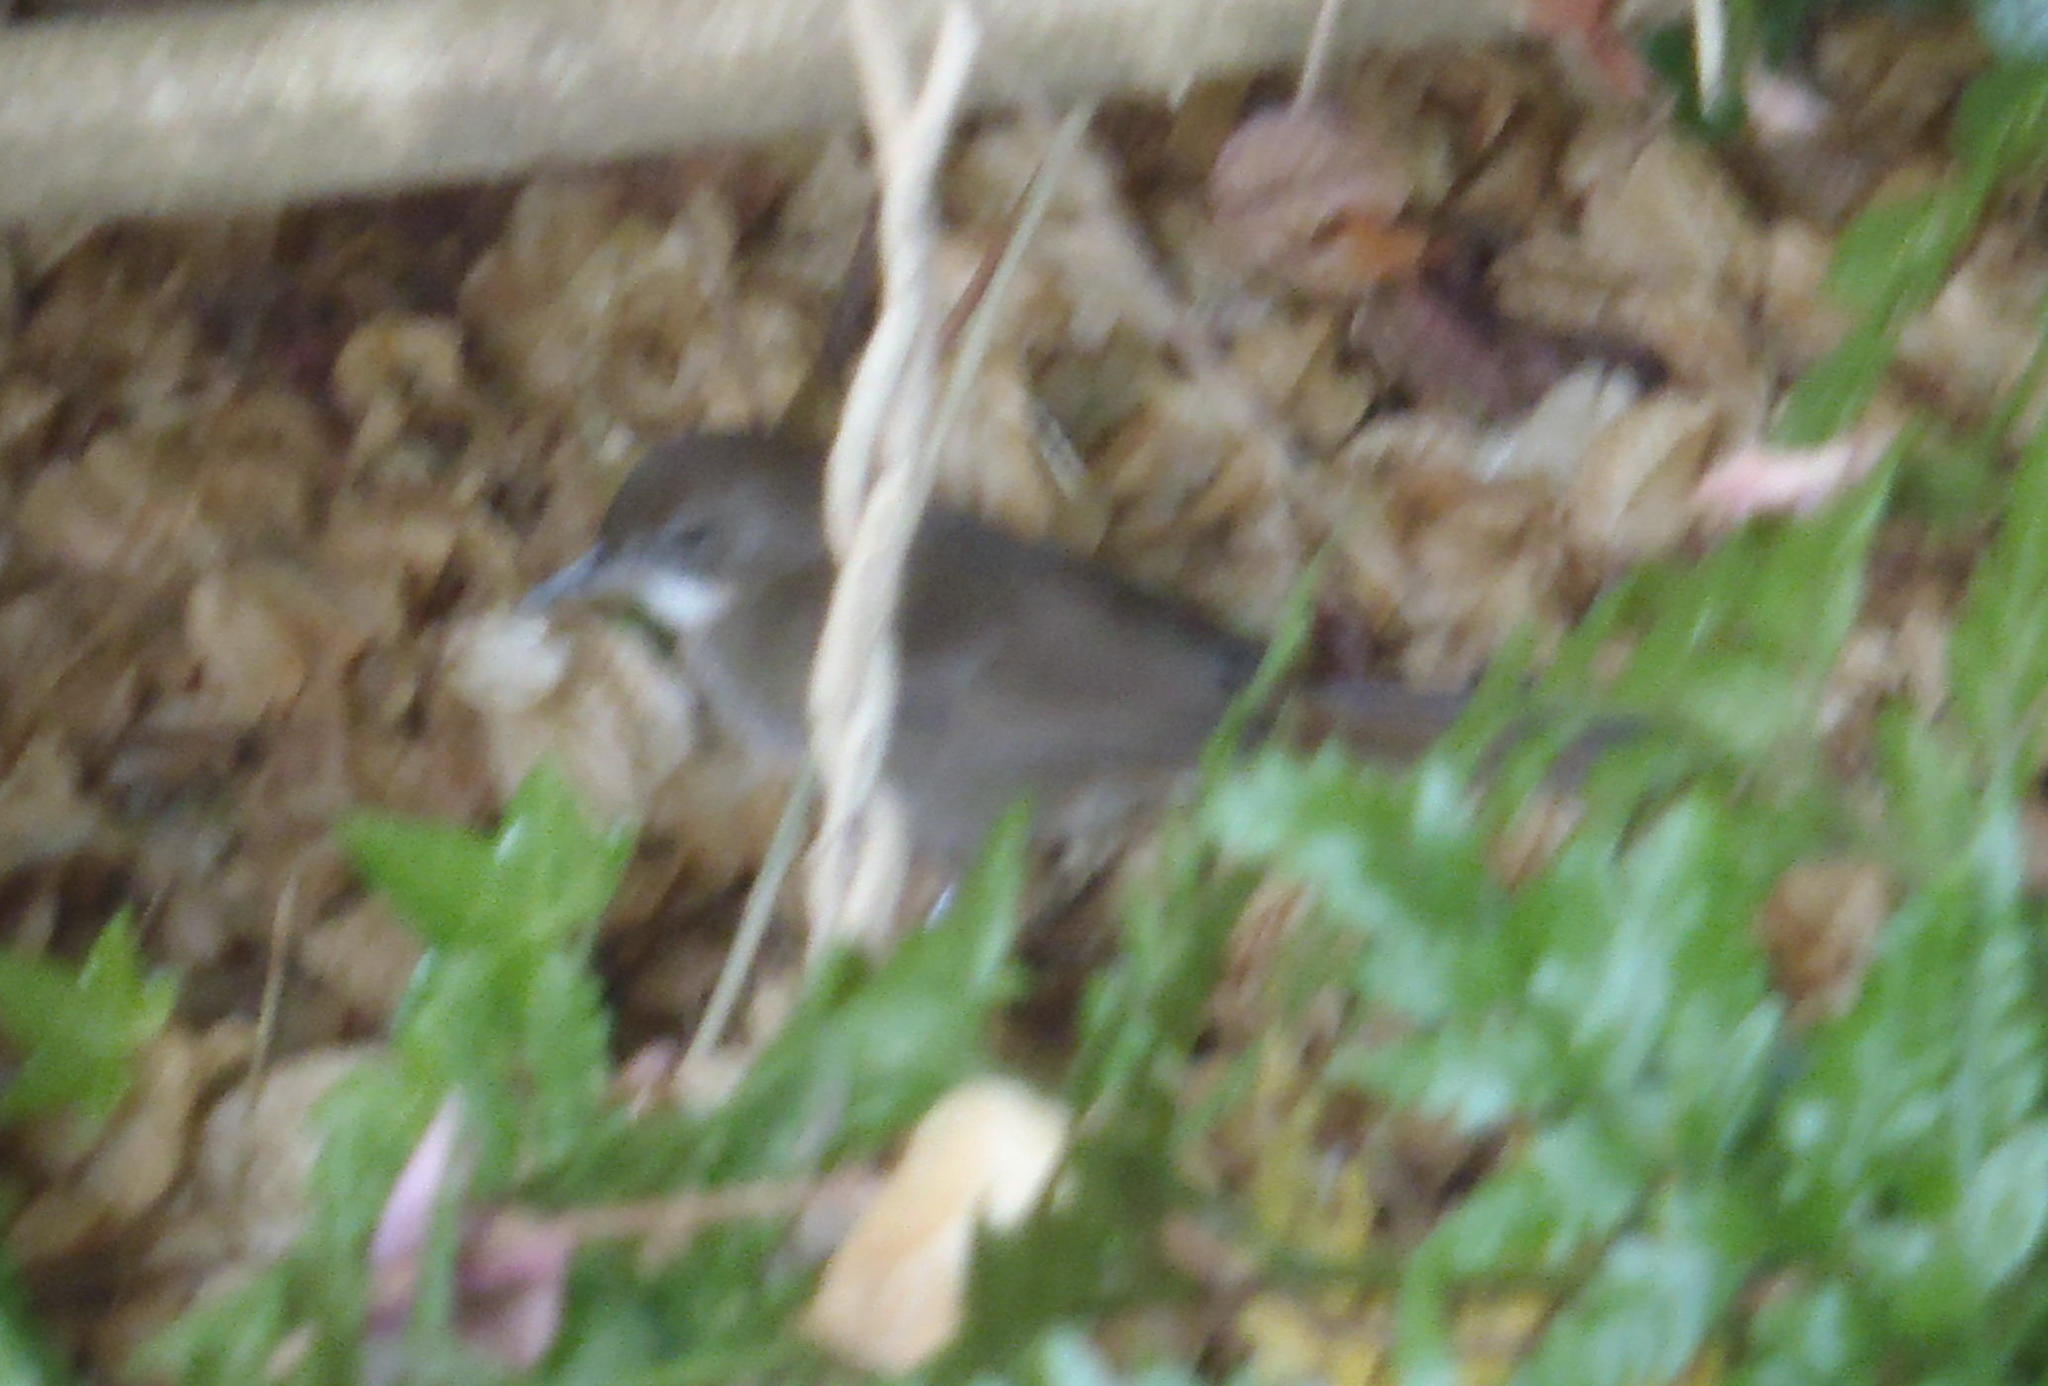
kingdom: Animalia
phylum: Chordata
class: Aves
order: Passeriformes
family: Pycnonotidae
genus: Phyllastrephus
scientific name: Phyllastrephus terrestris
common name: Terrestrial brownbul
